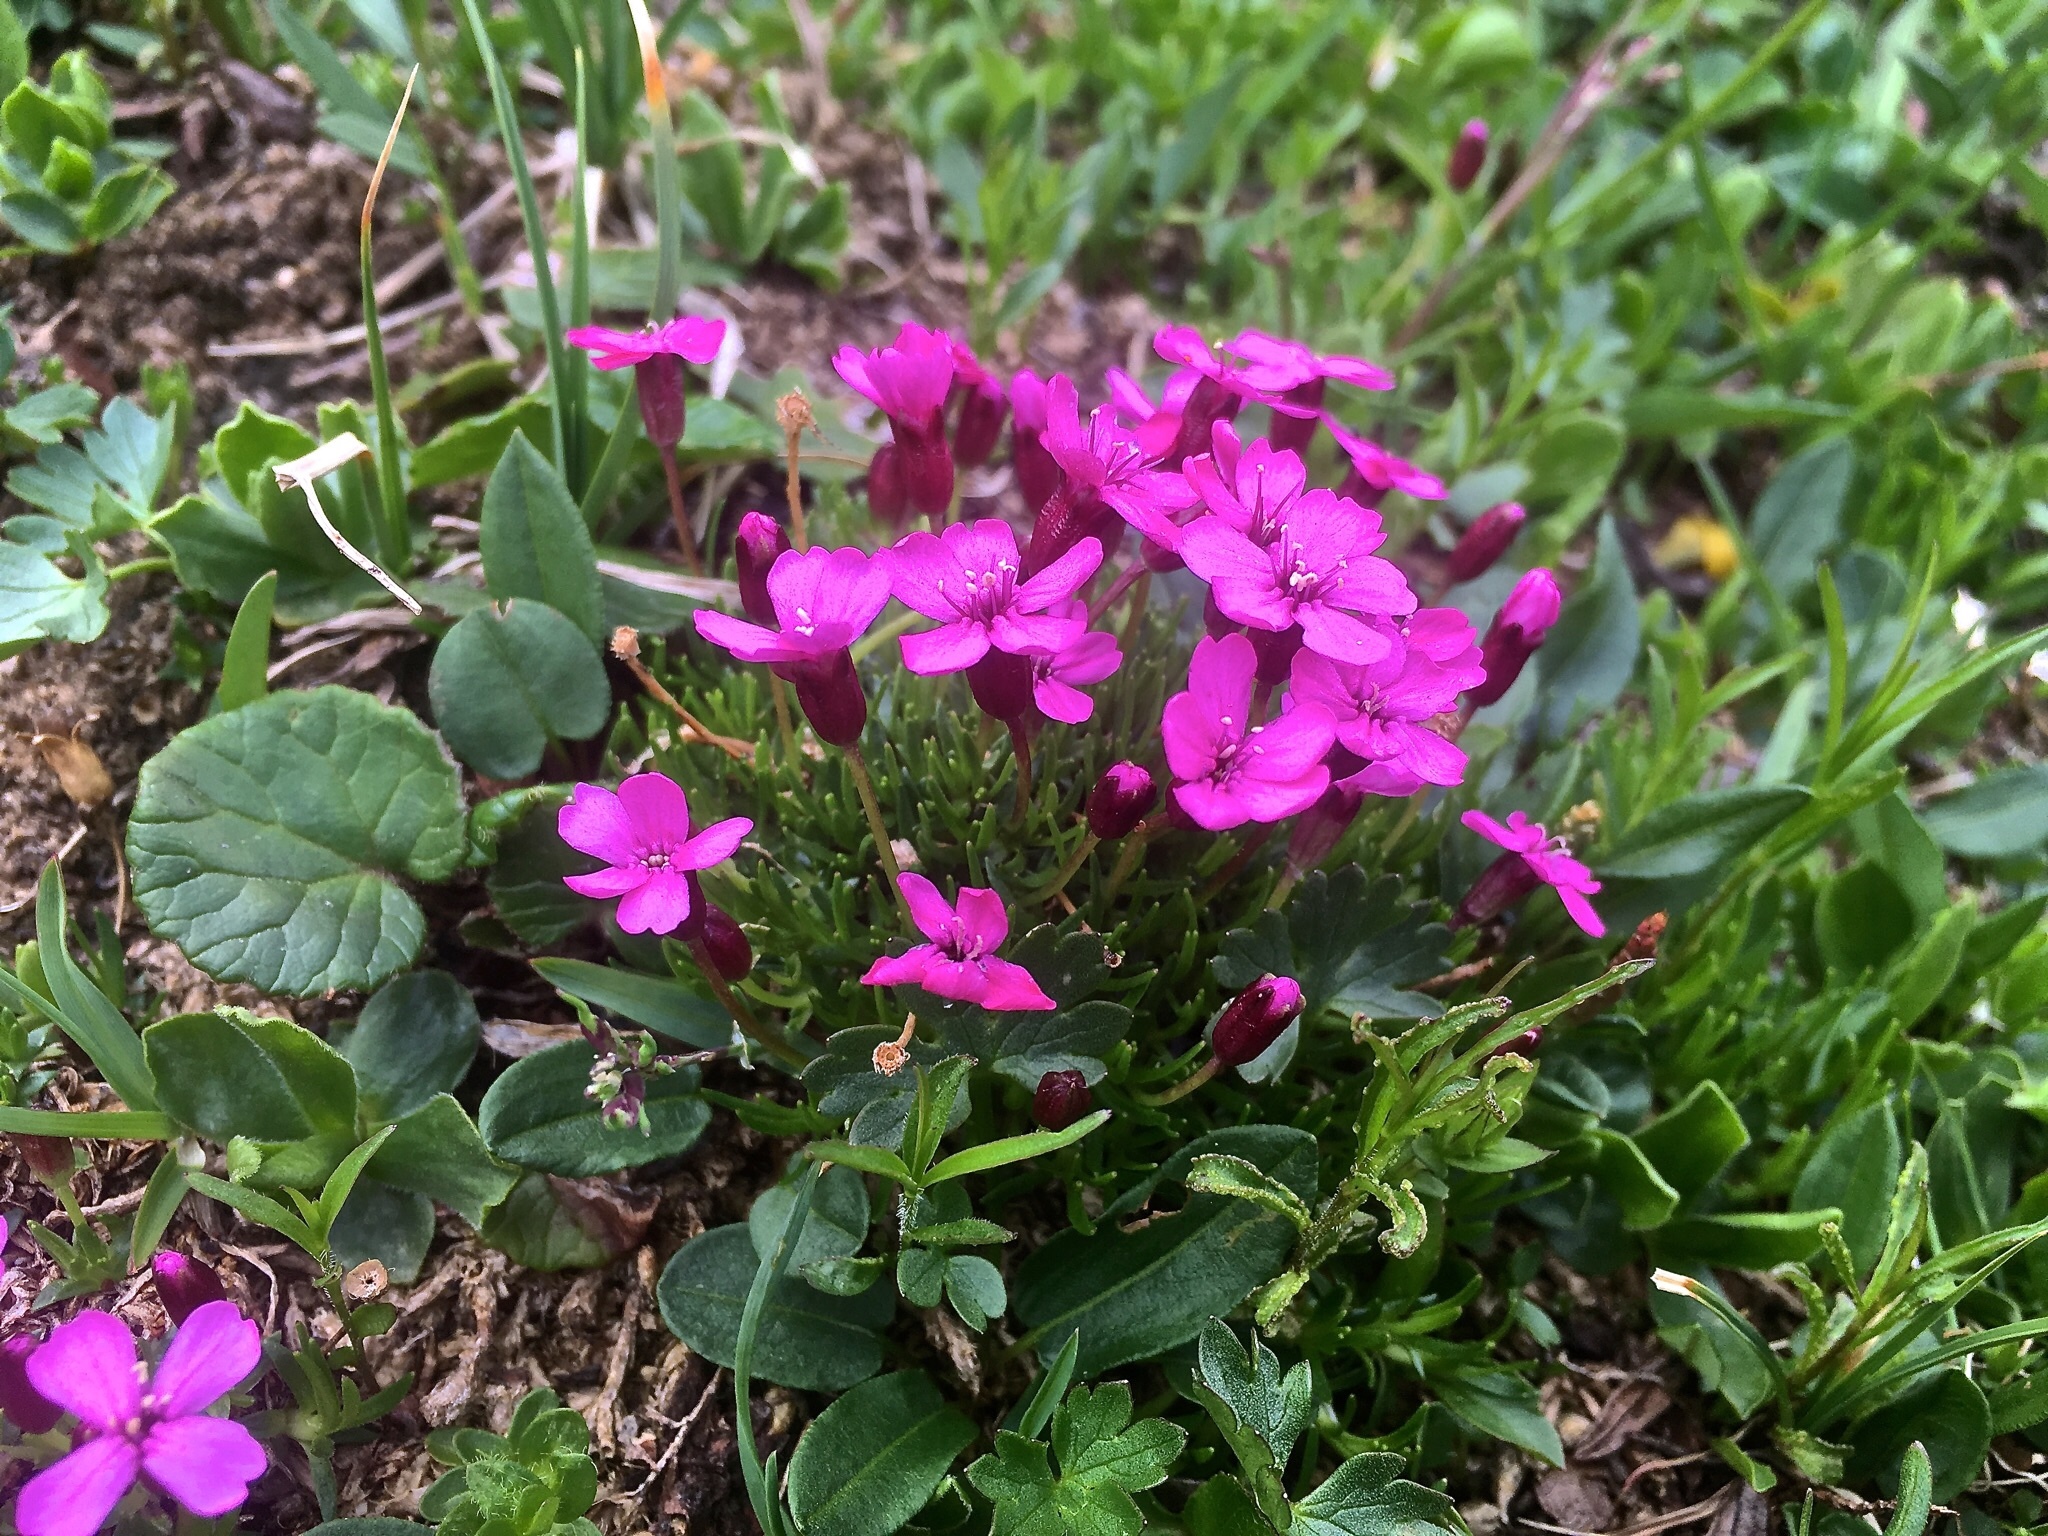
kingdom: Plantae
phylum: Tracheophyta
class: Magnoliopsida
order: Caryophyllales
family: Caryophyllaceae
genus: Silene
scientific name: Silene acaulis
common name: Moss campion
